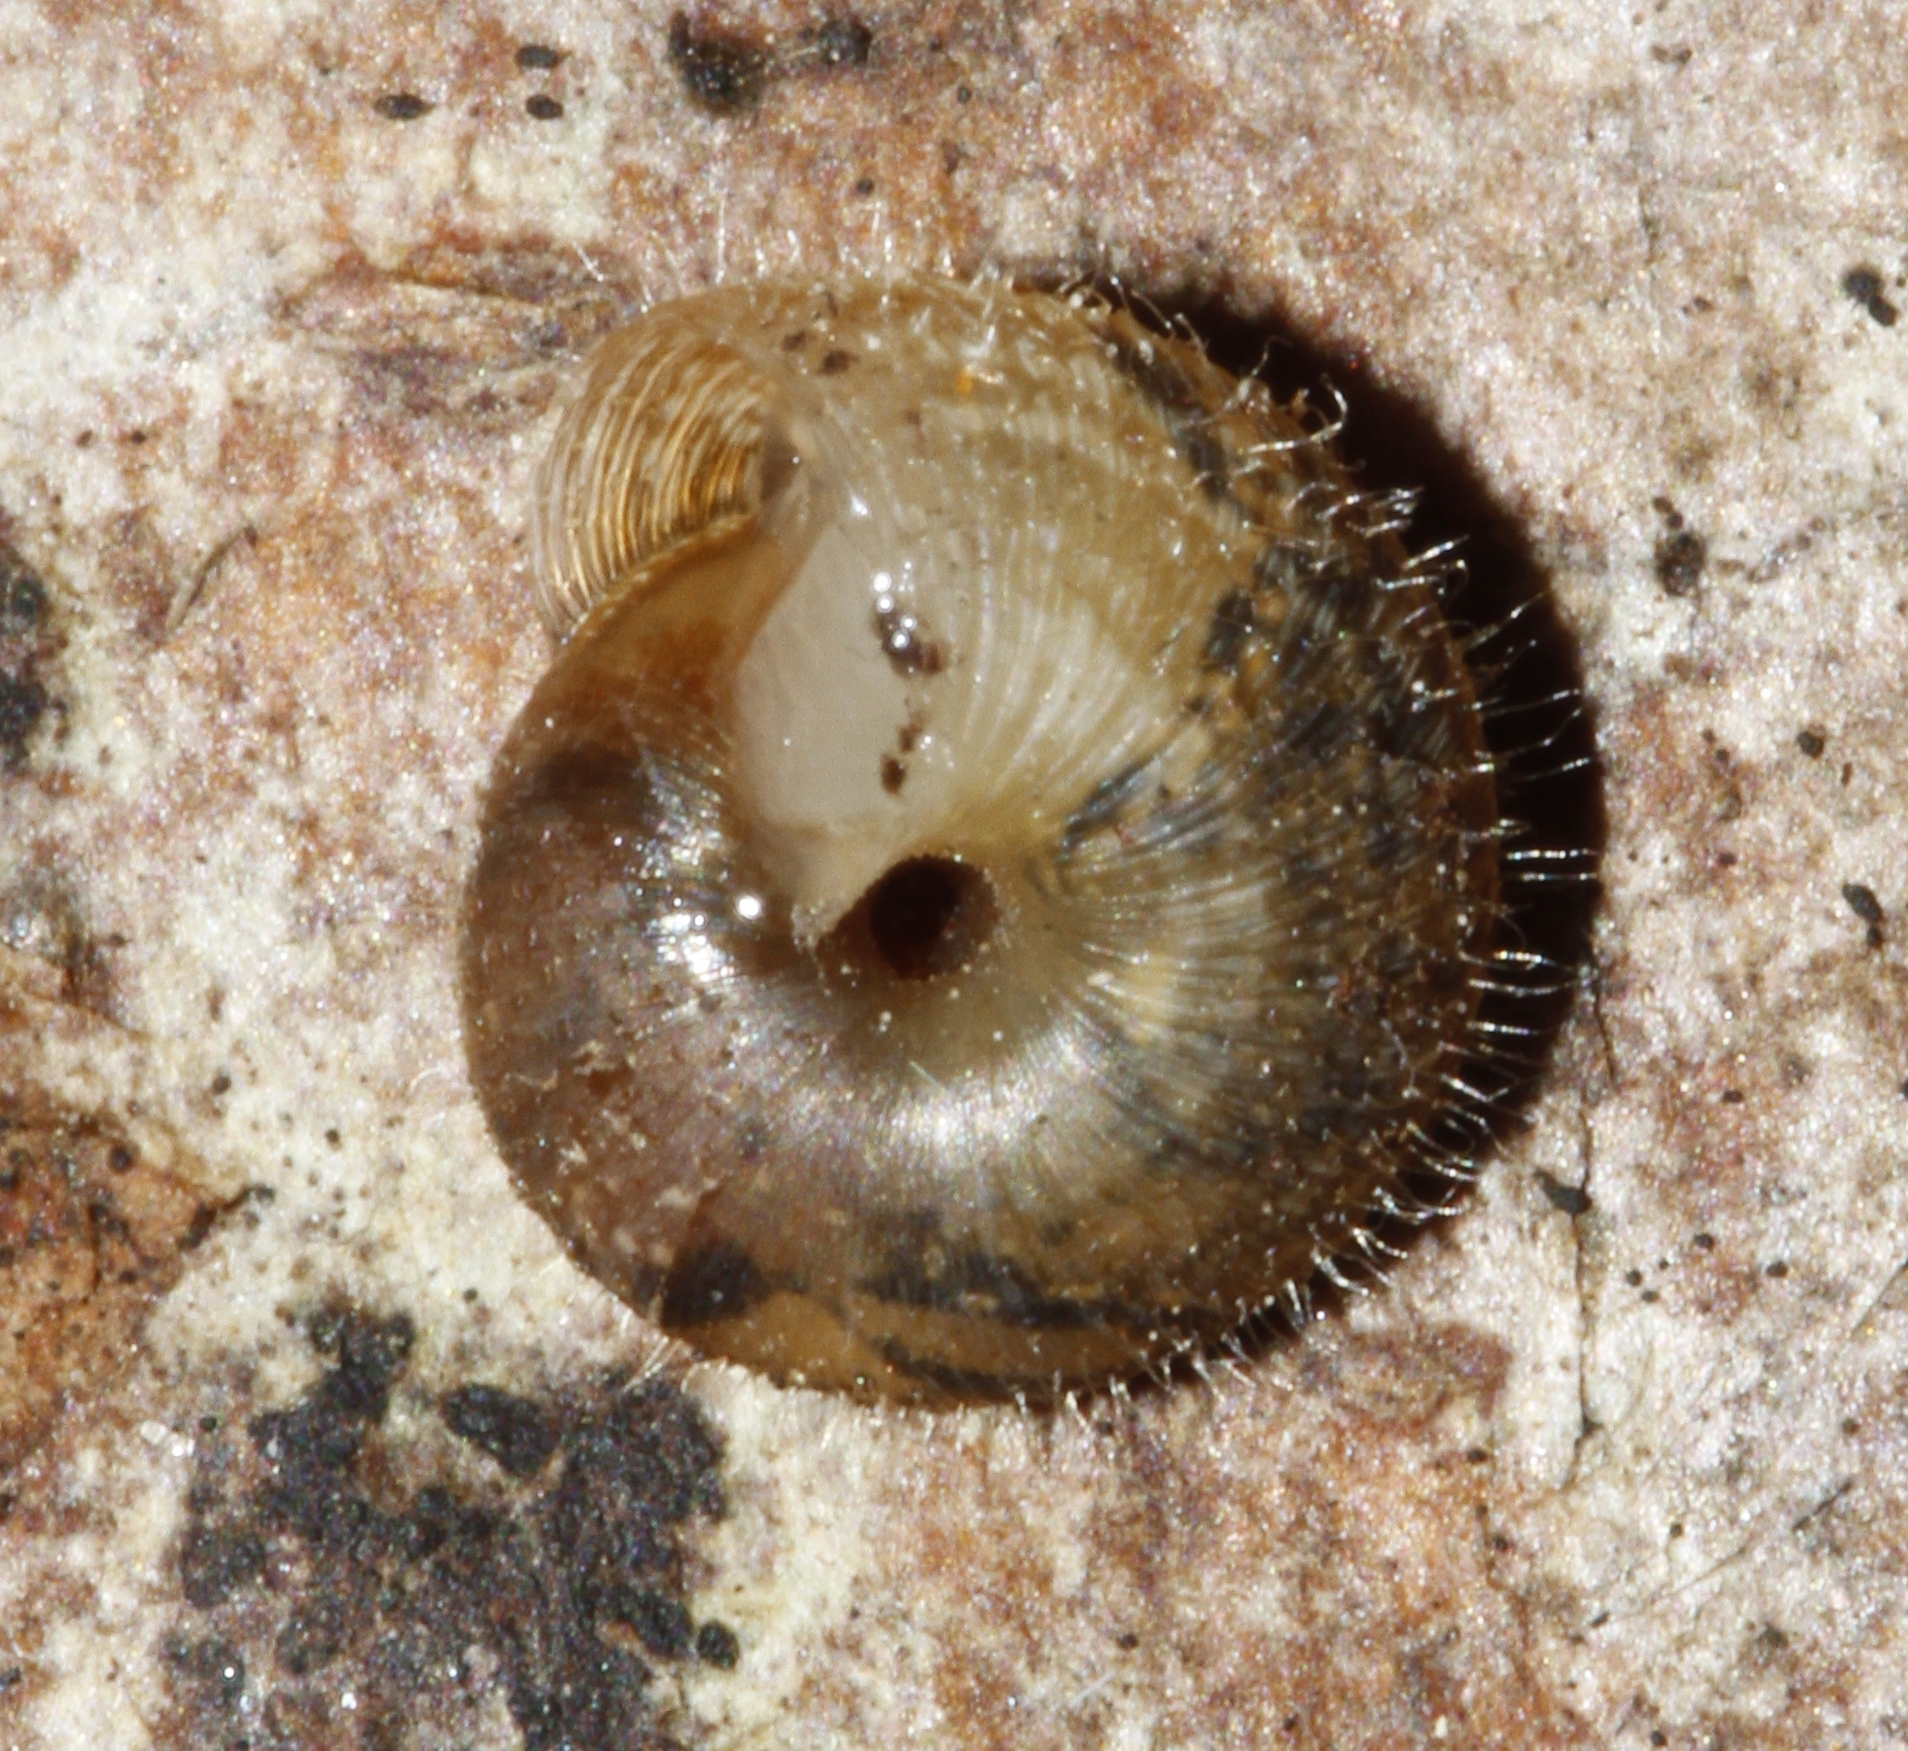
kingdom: Animalia
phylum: Mollusca
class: Gastropoda
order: Stylommatophora
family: Geomitridae
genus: Xerotricha
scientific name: Xerotricha conspurcata
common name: Snail
